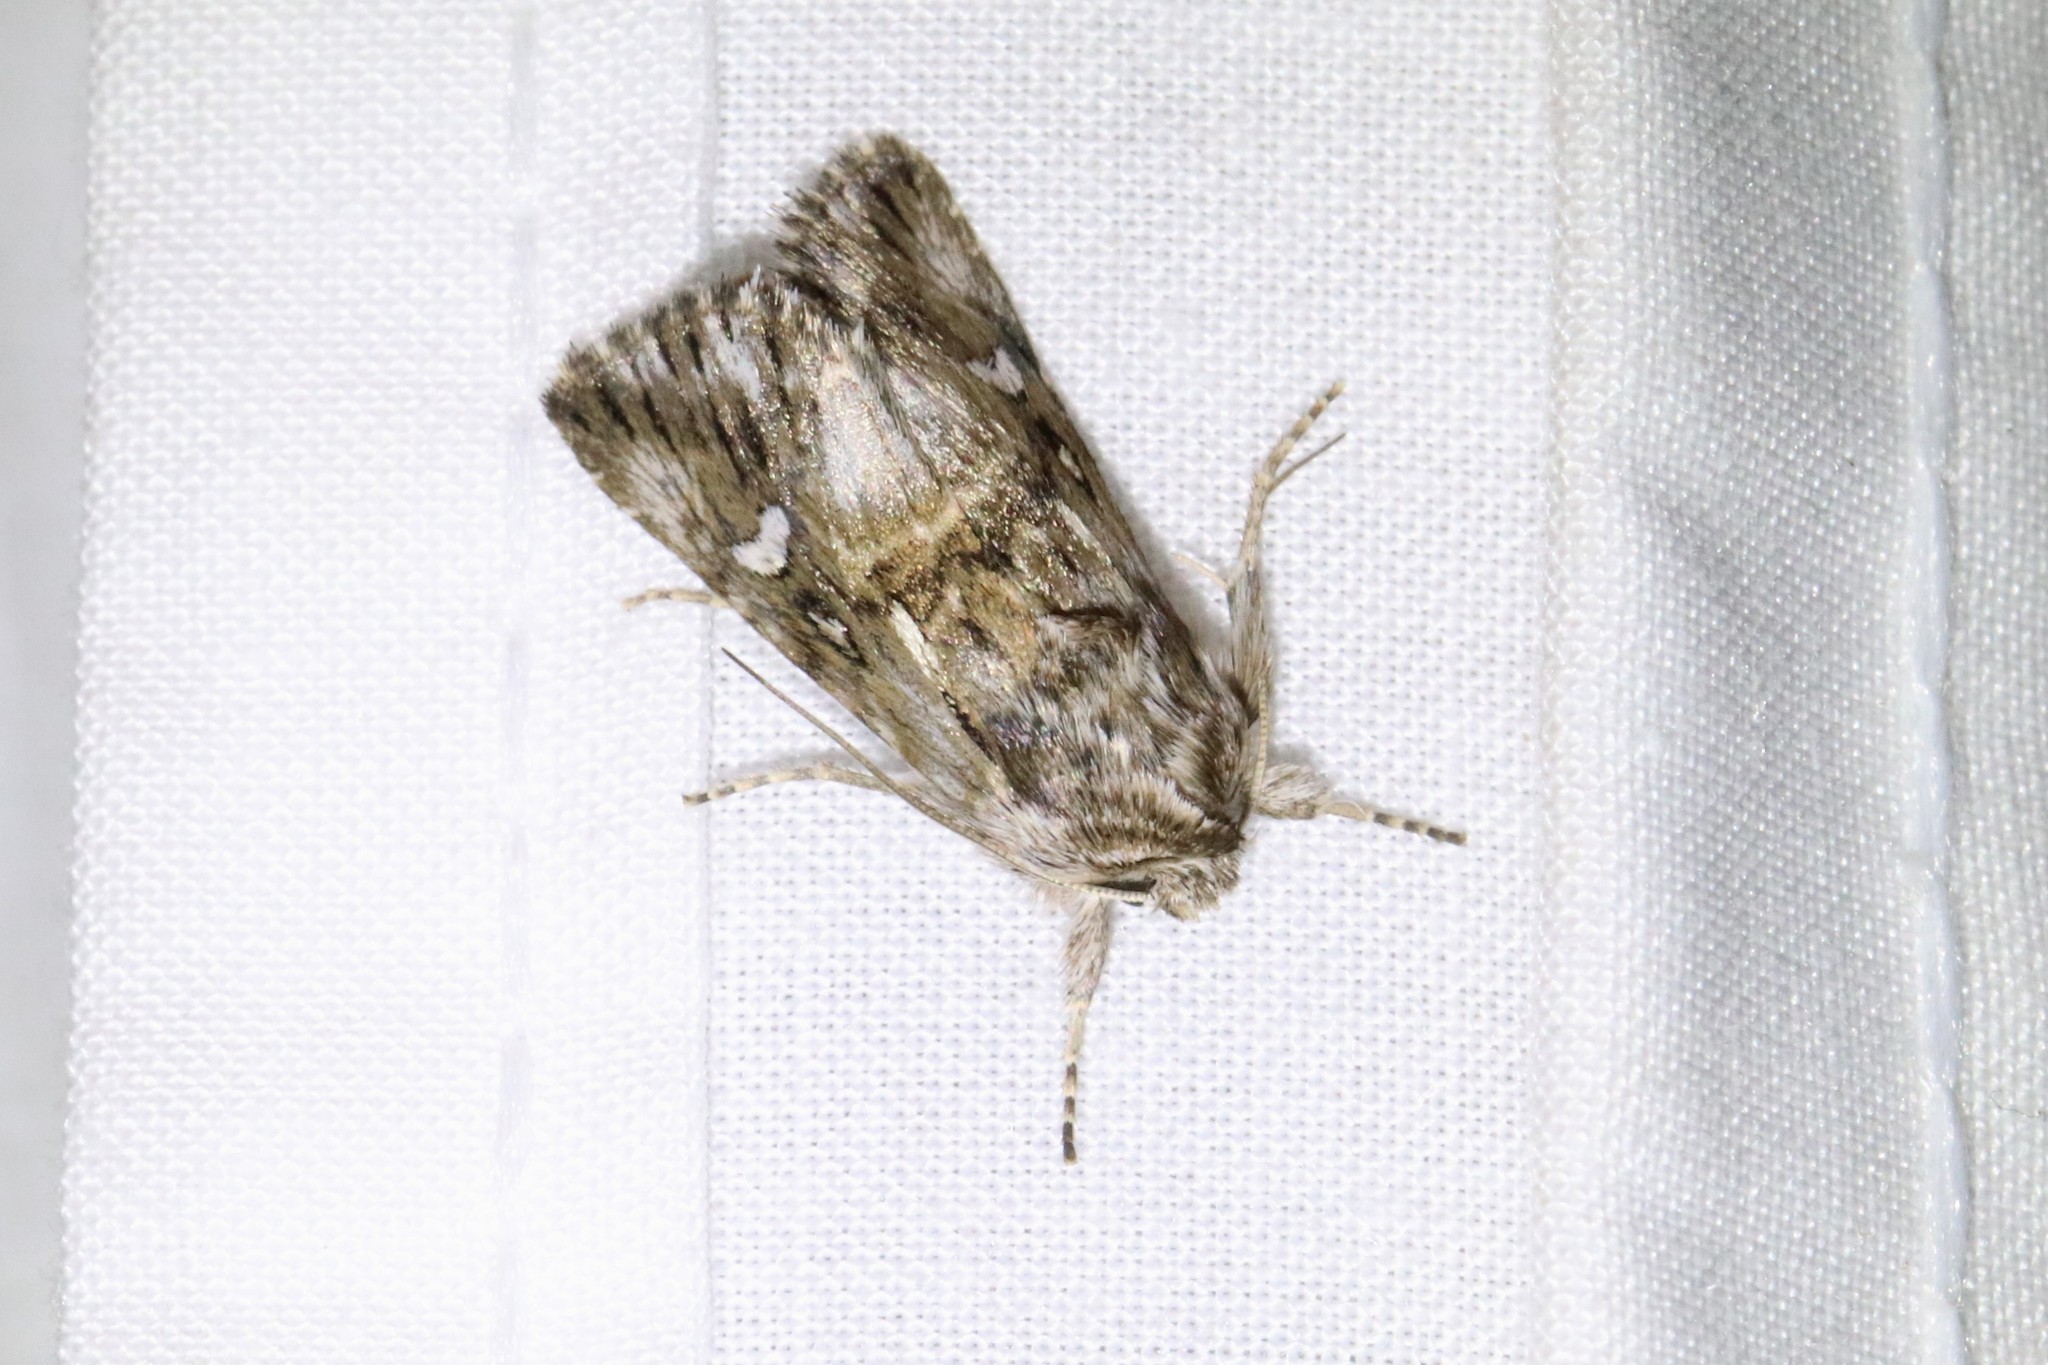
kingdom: Animalia
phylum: Arthropoda
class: Insecta
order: Lepidoptera
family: Noctuidae
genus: Calophasia
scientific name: Calophasia lunula
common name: Toadflax brocade
